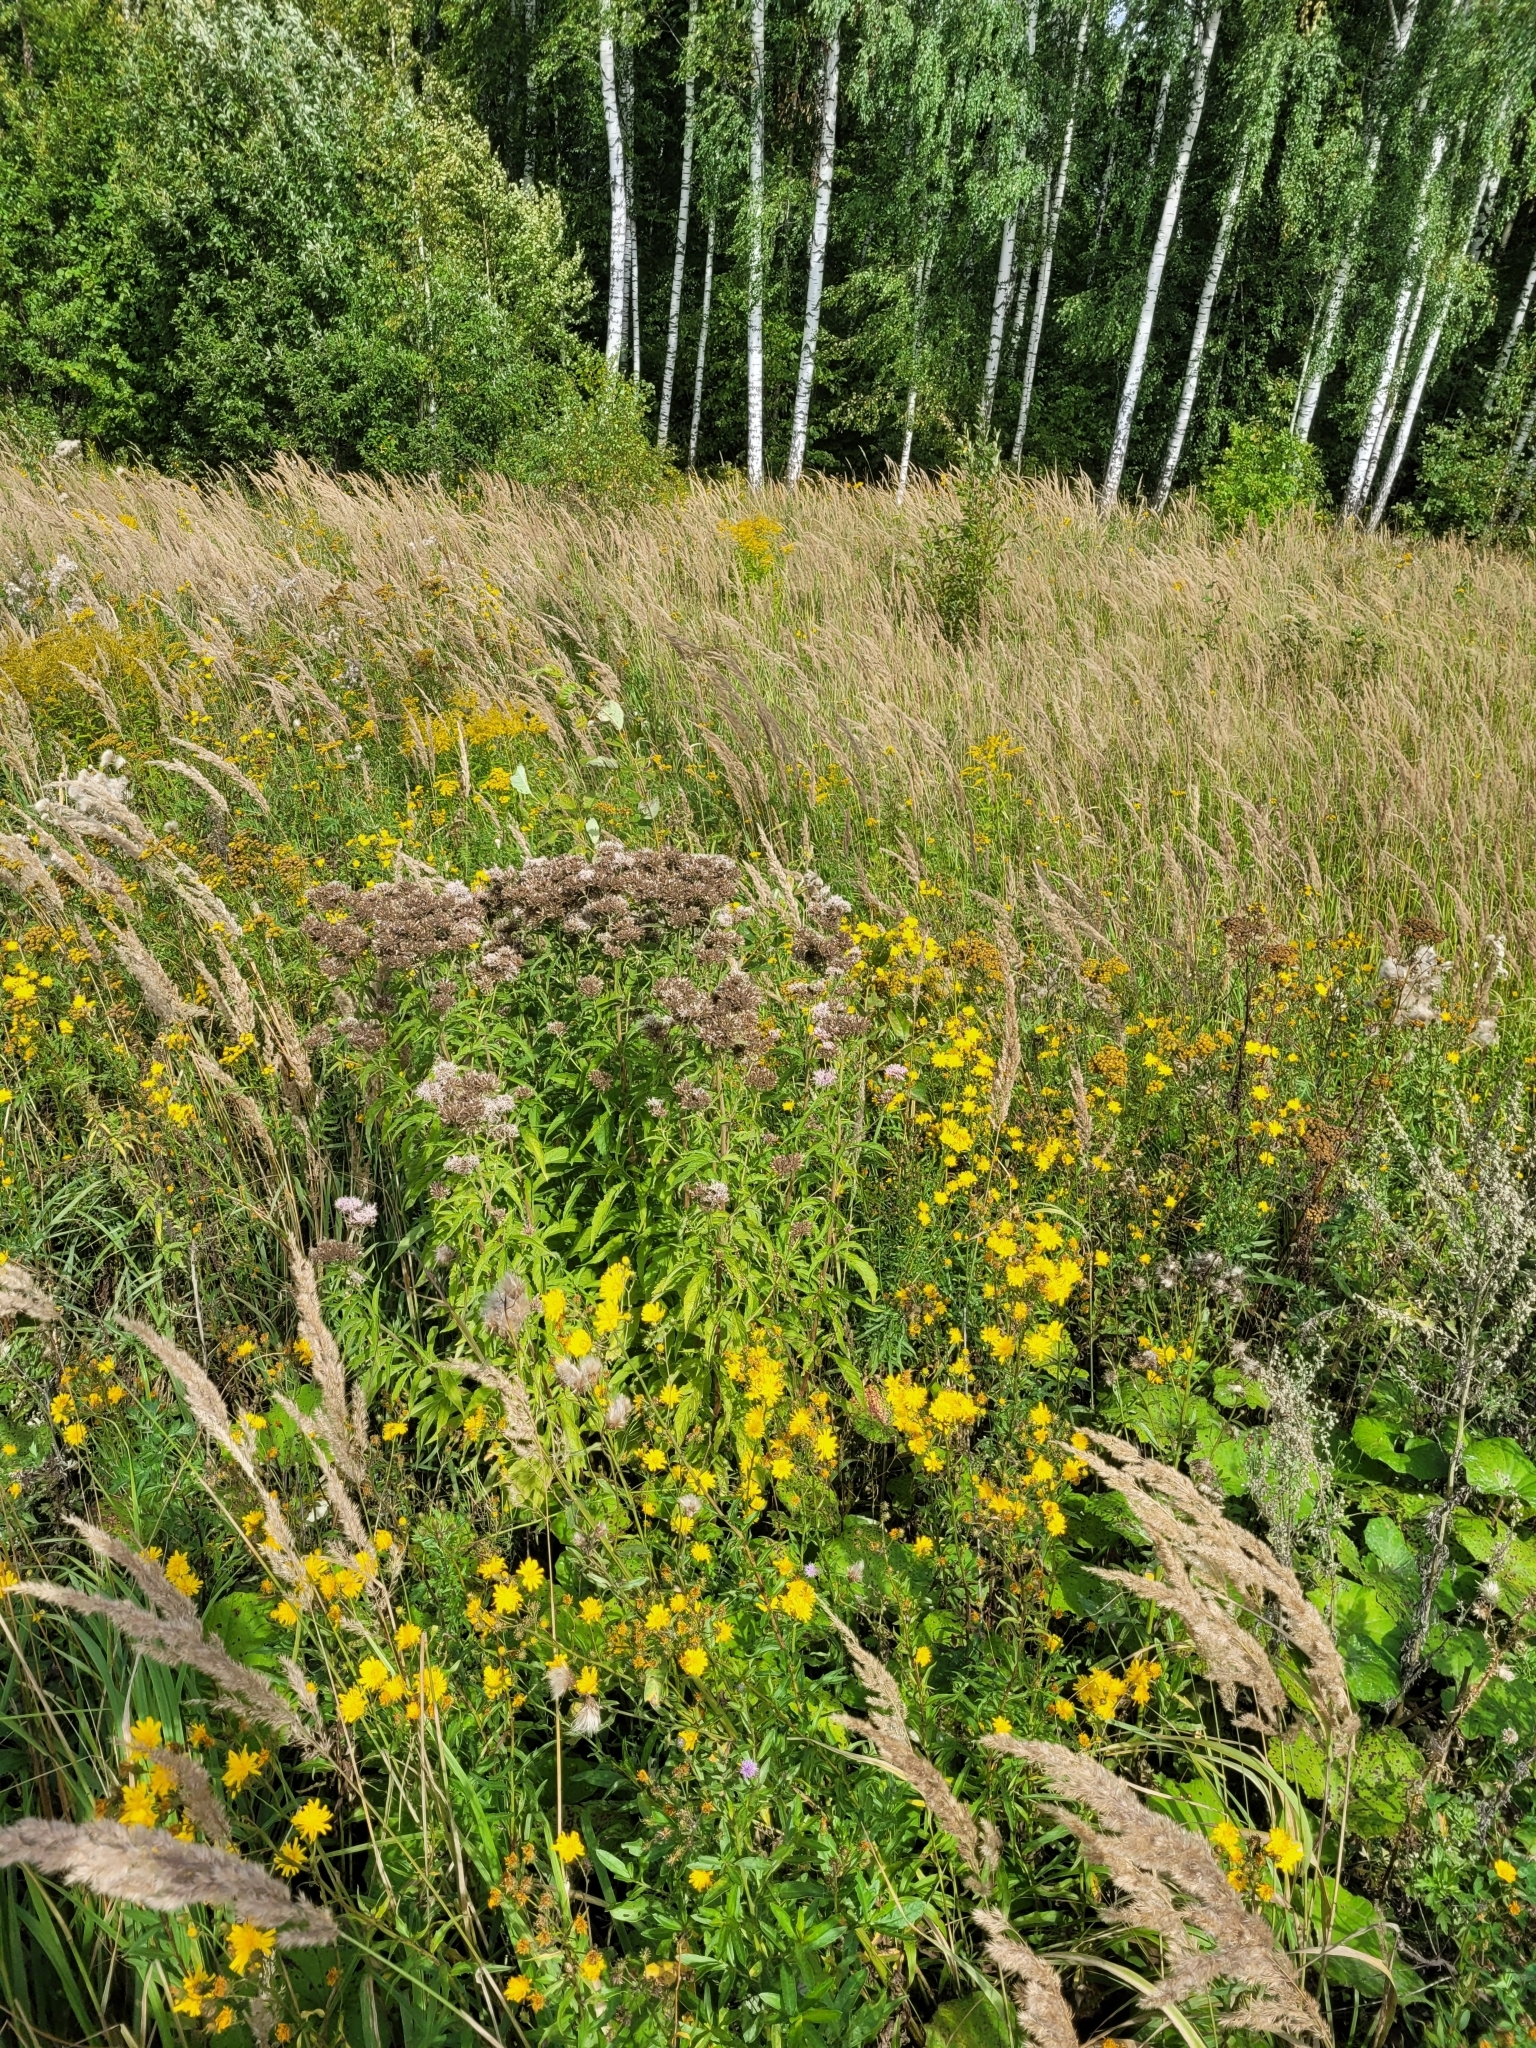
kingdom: Plantae
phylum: Tracheophyta
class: Magnoliopsida
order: Asterales
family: Asteraceae
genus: Eupatorium
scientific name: Eupatorium cannabinum
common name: Hemp-agrimony
